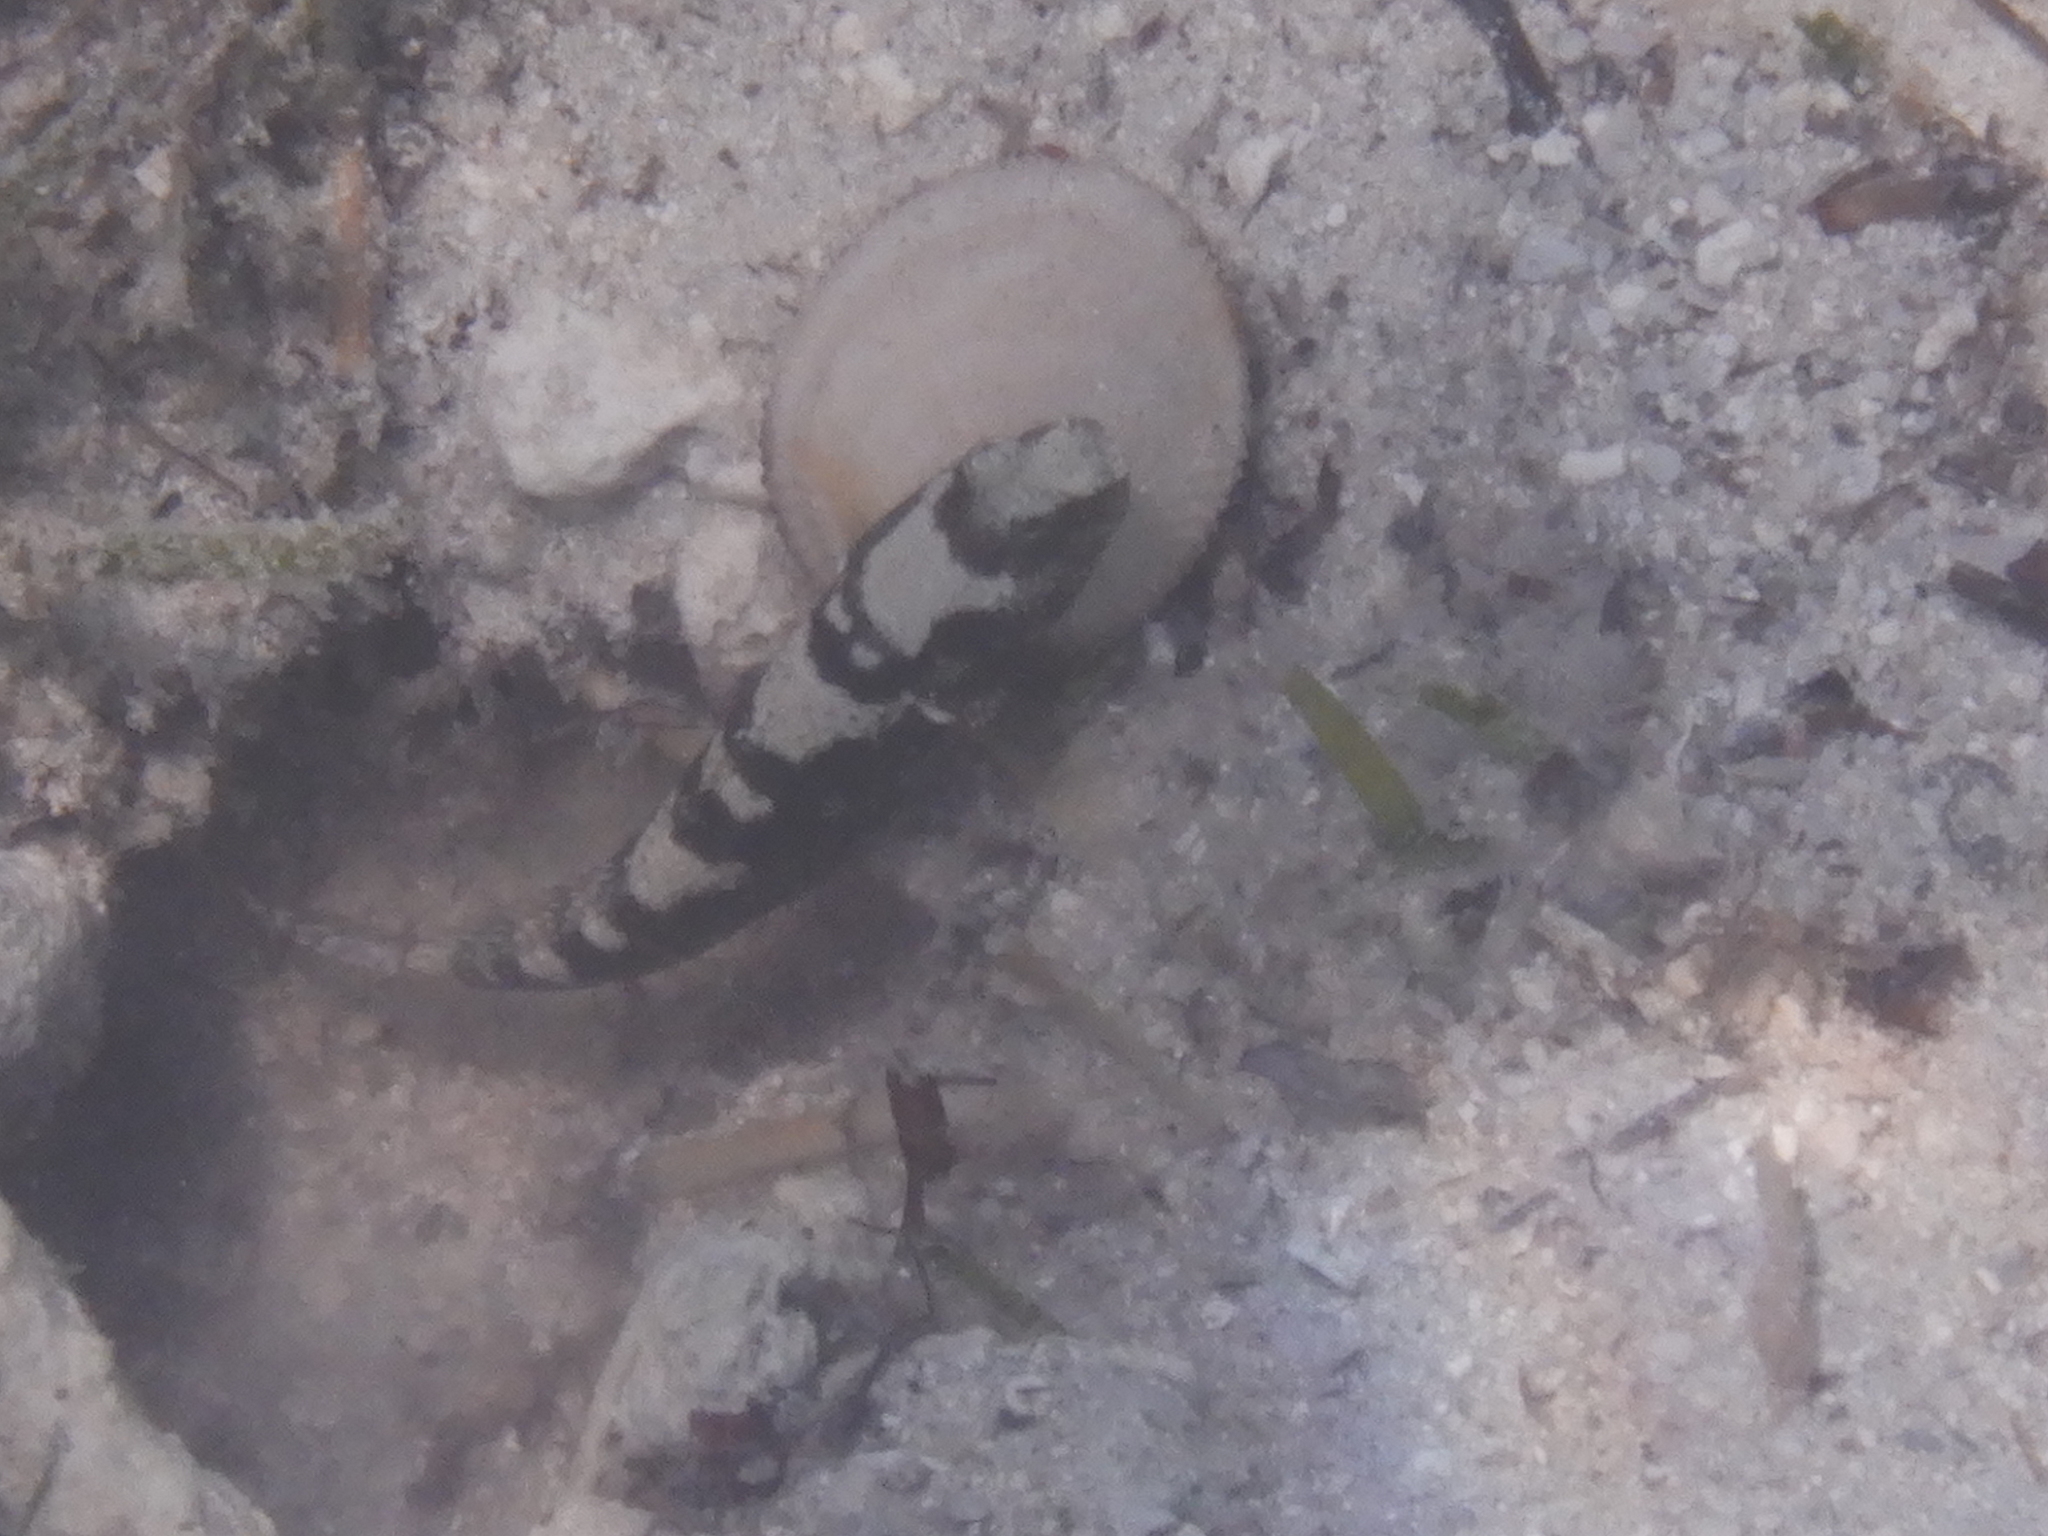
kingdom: Animalia
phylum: Chordata
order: Perciformes
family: Gobiidae
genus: Cryptocentrus
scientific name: Cryptocentrus maudae
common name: Maude's shrimpgoby
